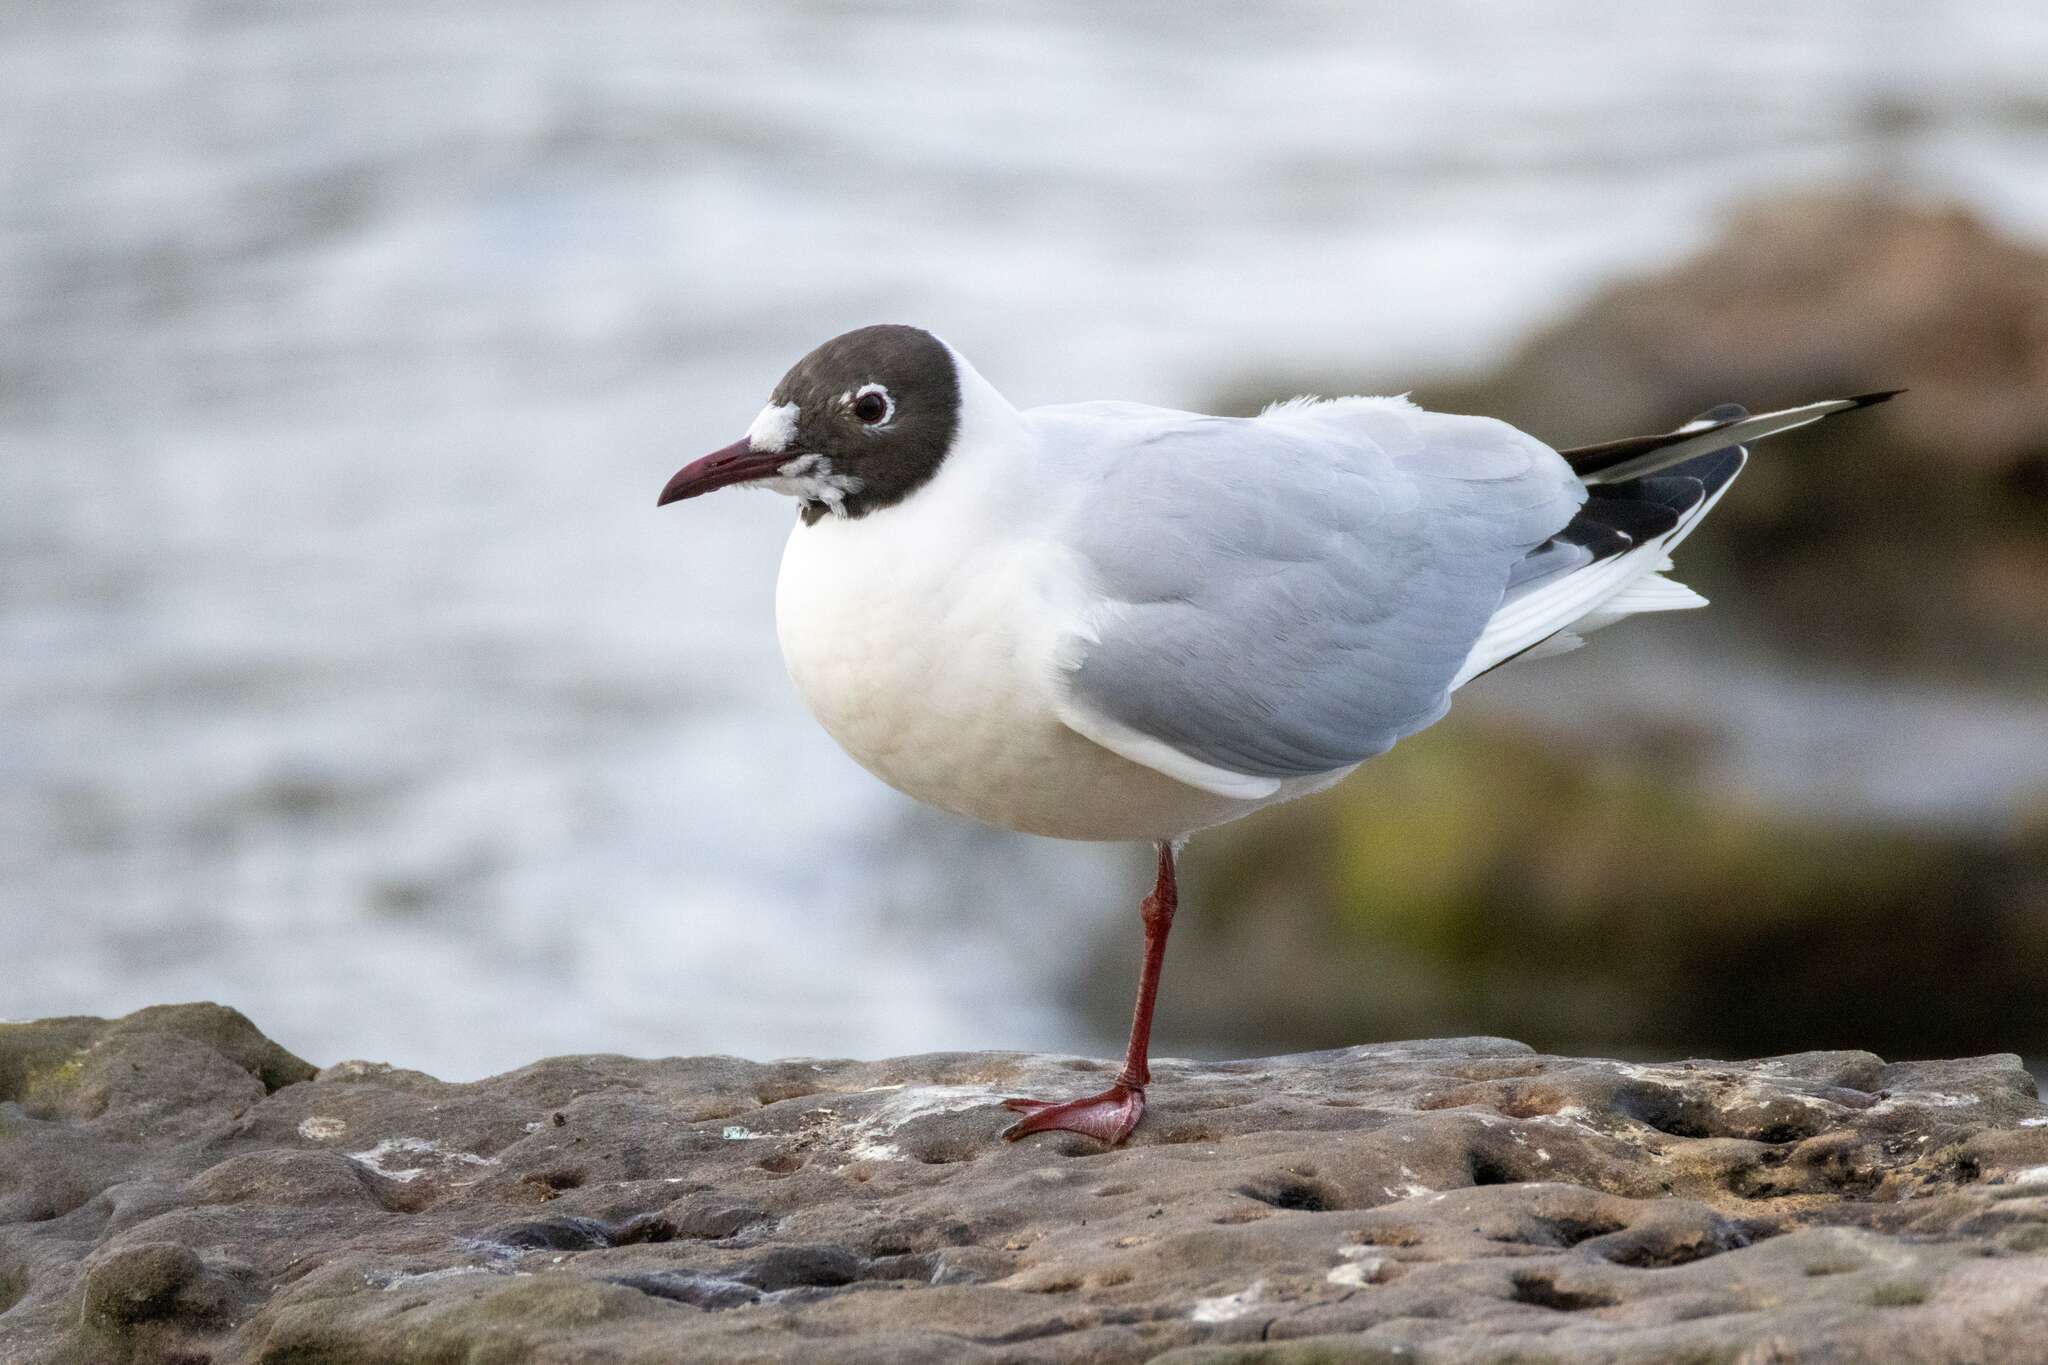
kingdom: Animalia
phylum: Chordata
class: Aves
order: Charadriiformes
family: Laridae
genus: Chroicocephalus
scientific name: Chroicocephalus ridibundus
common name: Black-headed gull
